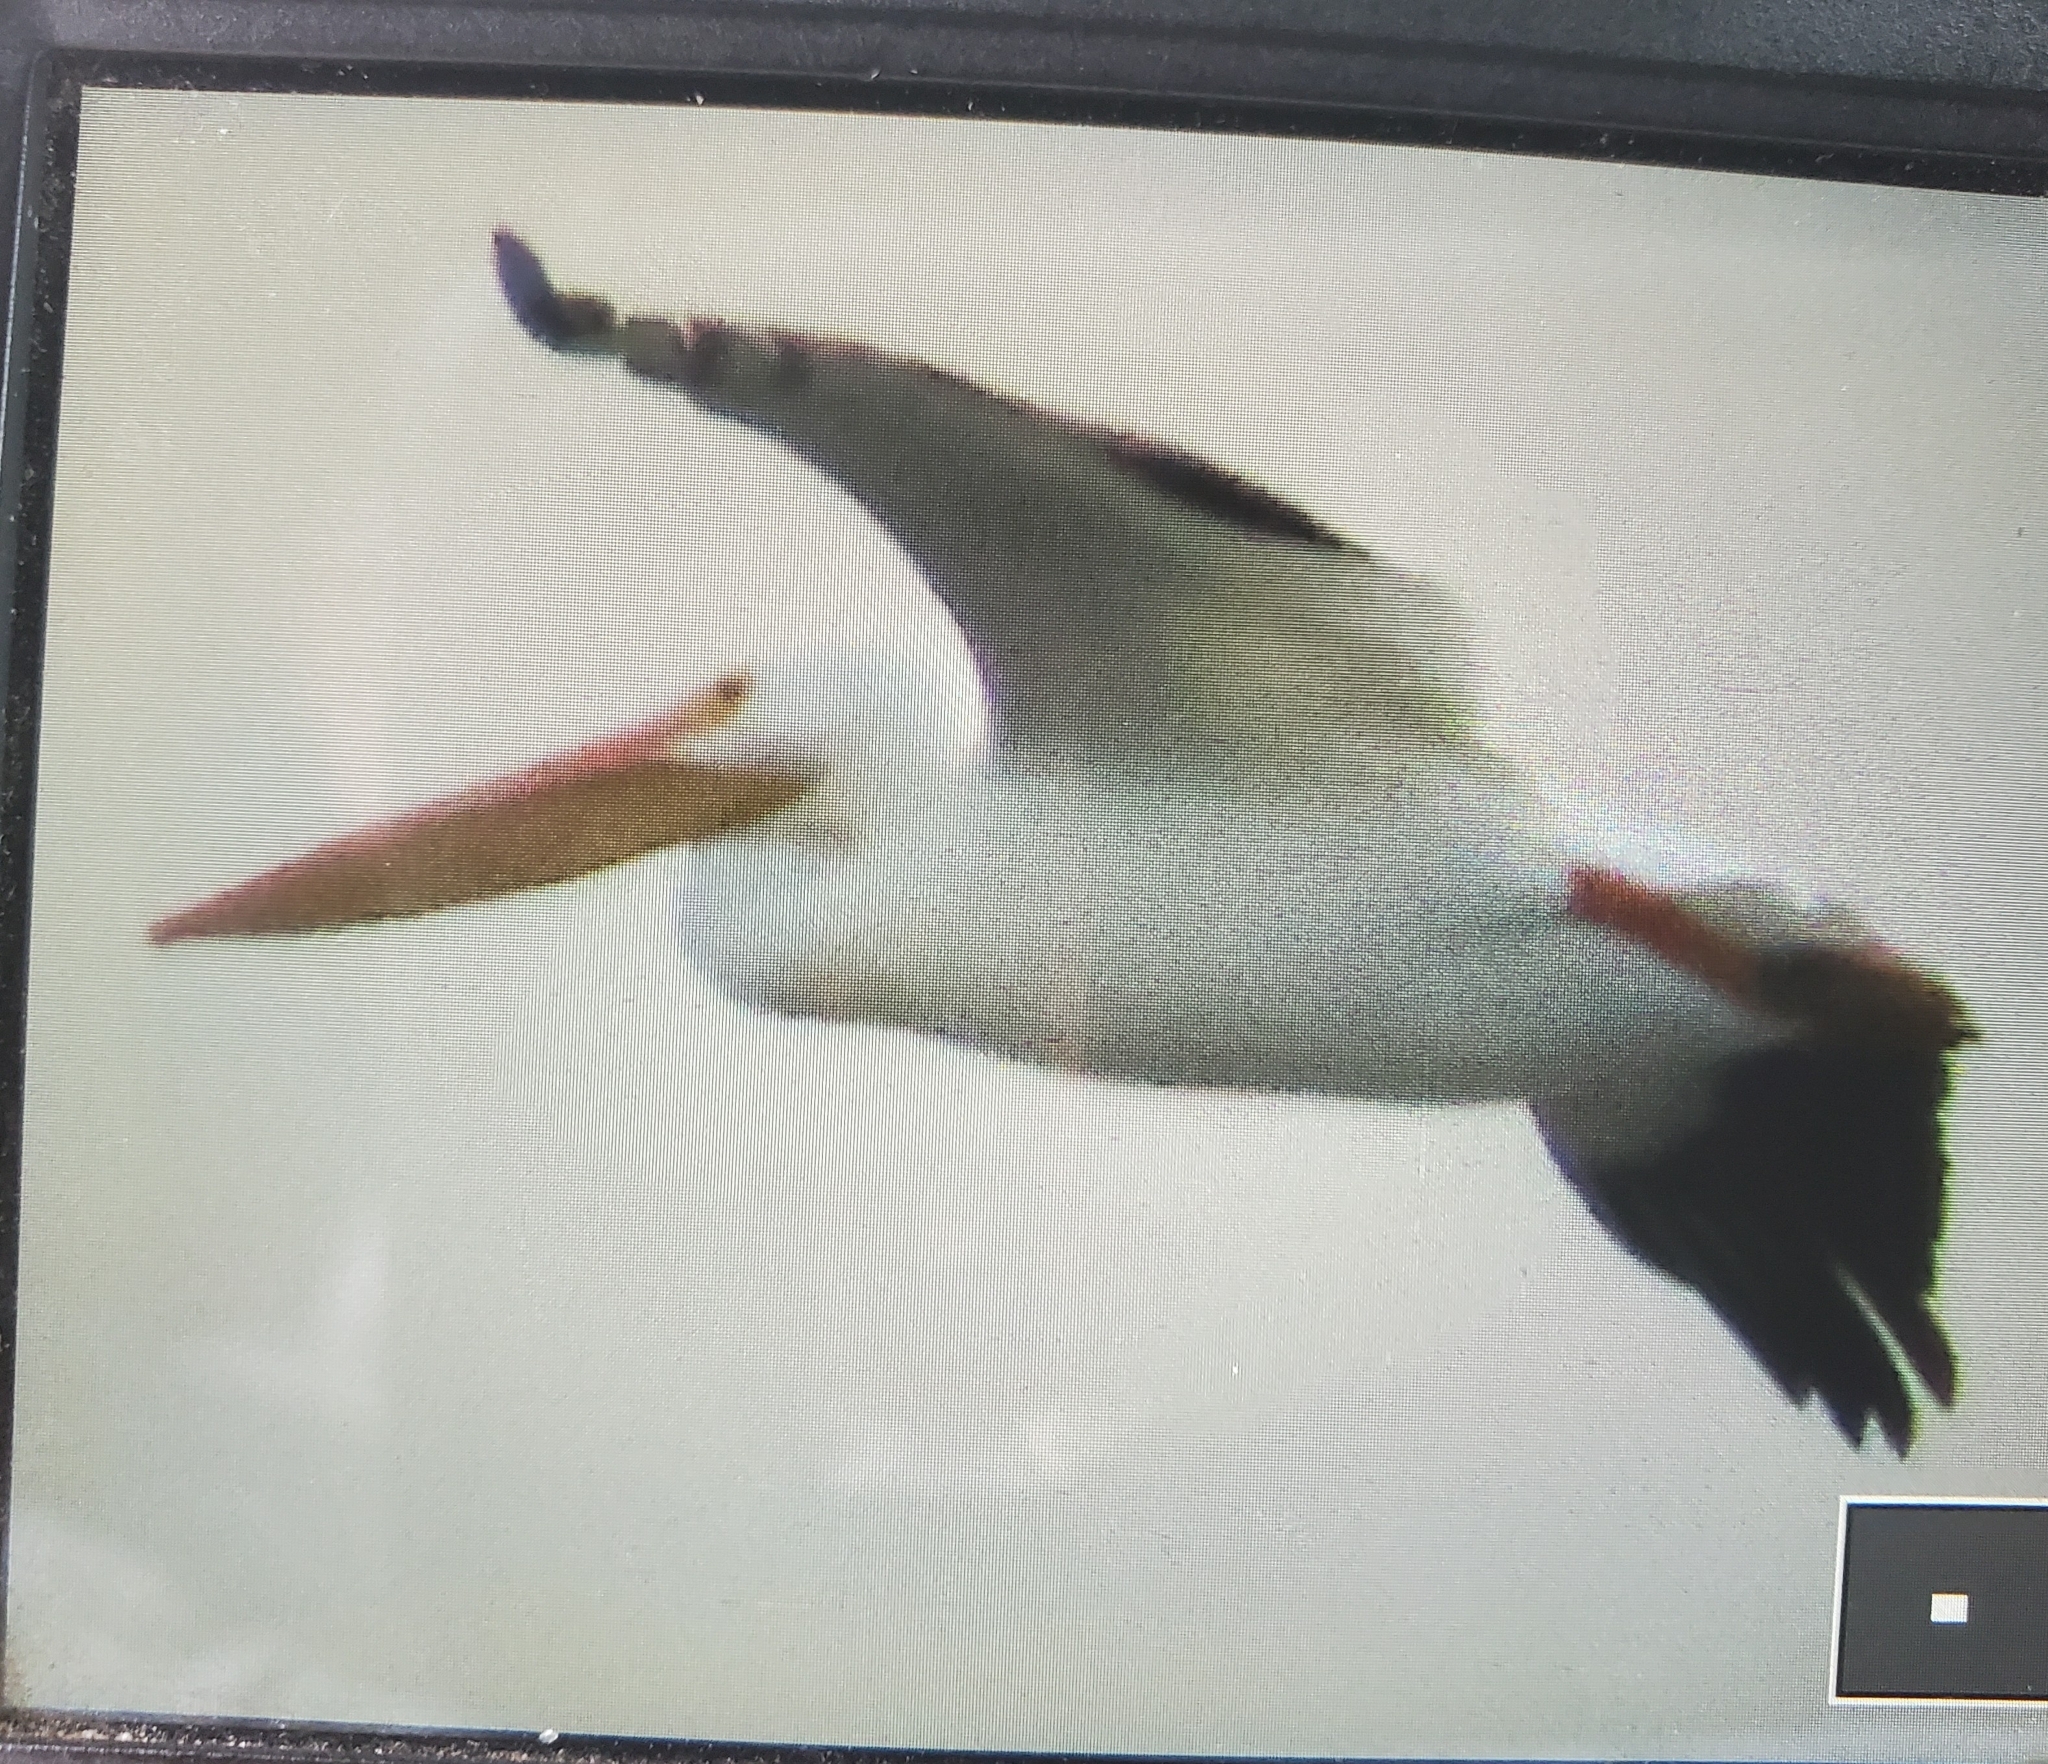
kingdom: Animalia
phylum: Chordata
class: Aves
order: Pelecaniformes
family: Pelecanidae
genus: Pelecanus
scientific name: Pelecanus erythrorhynchos
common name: American white pelican
